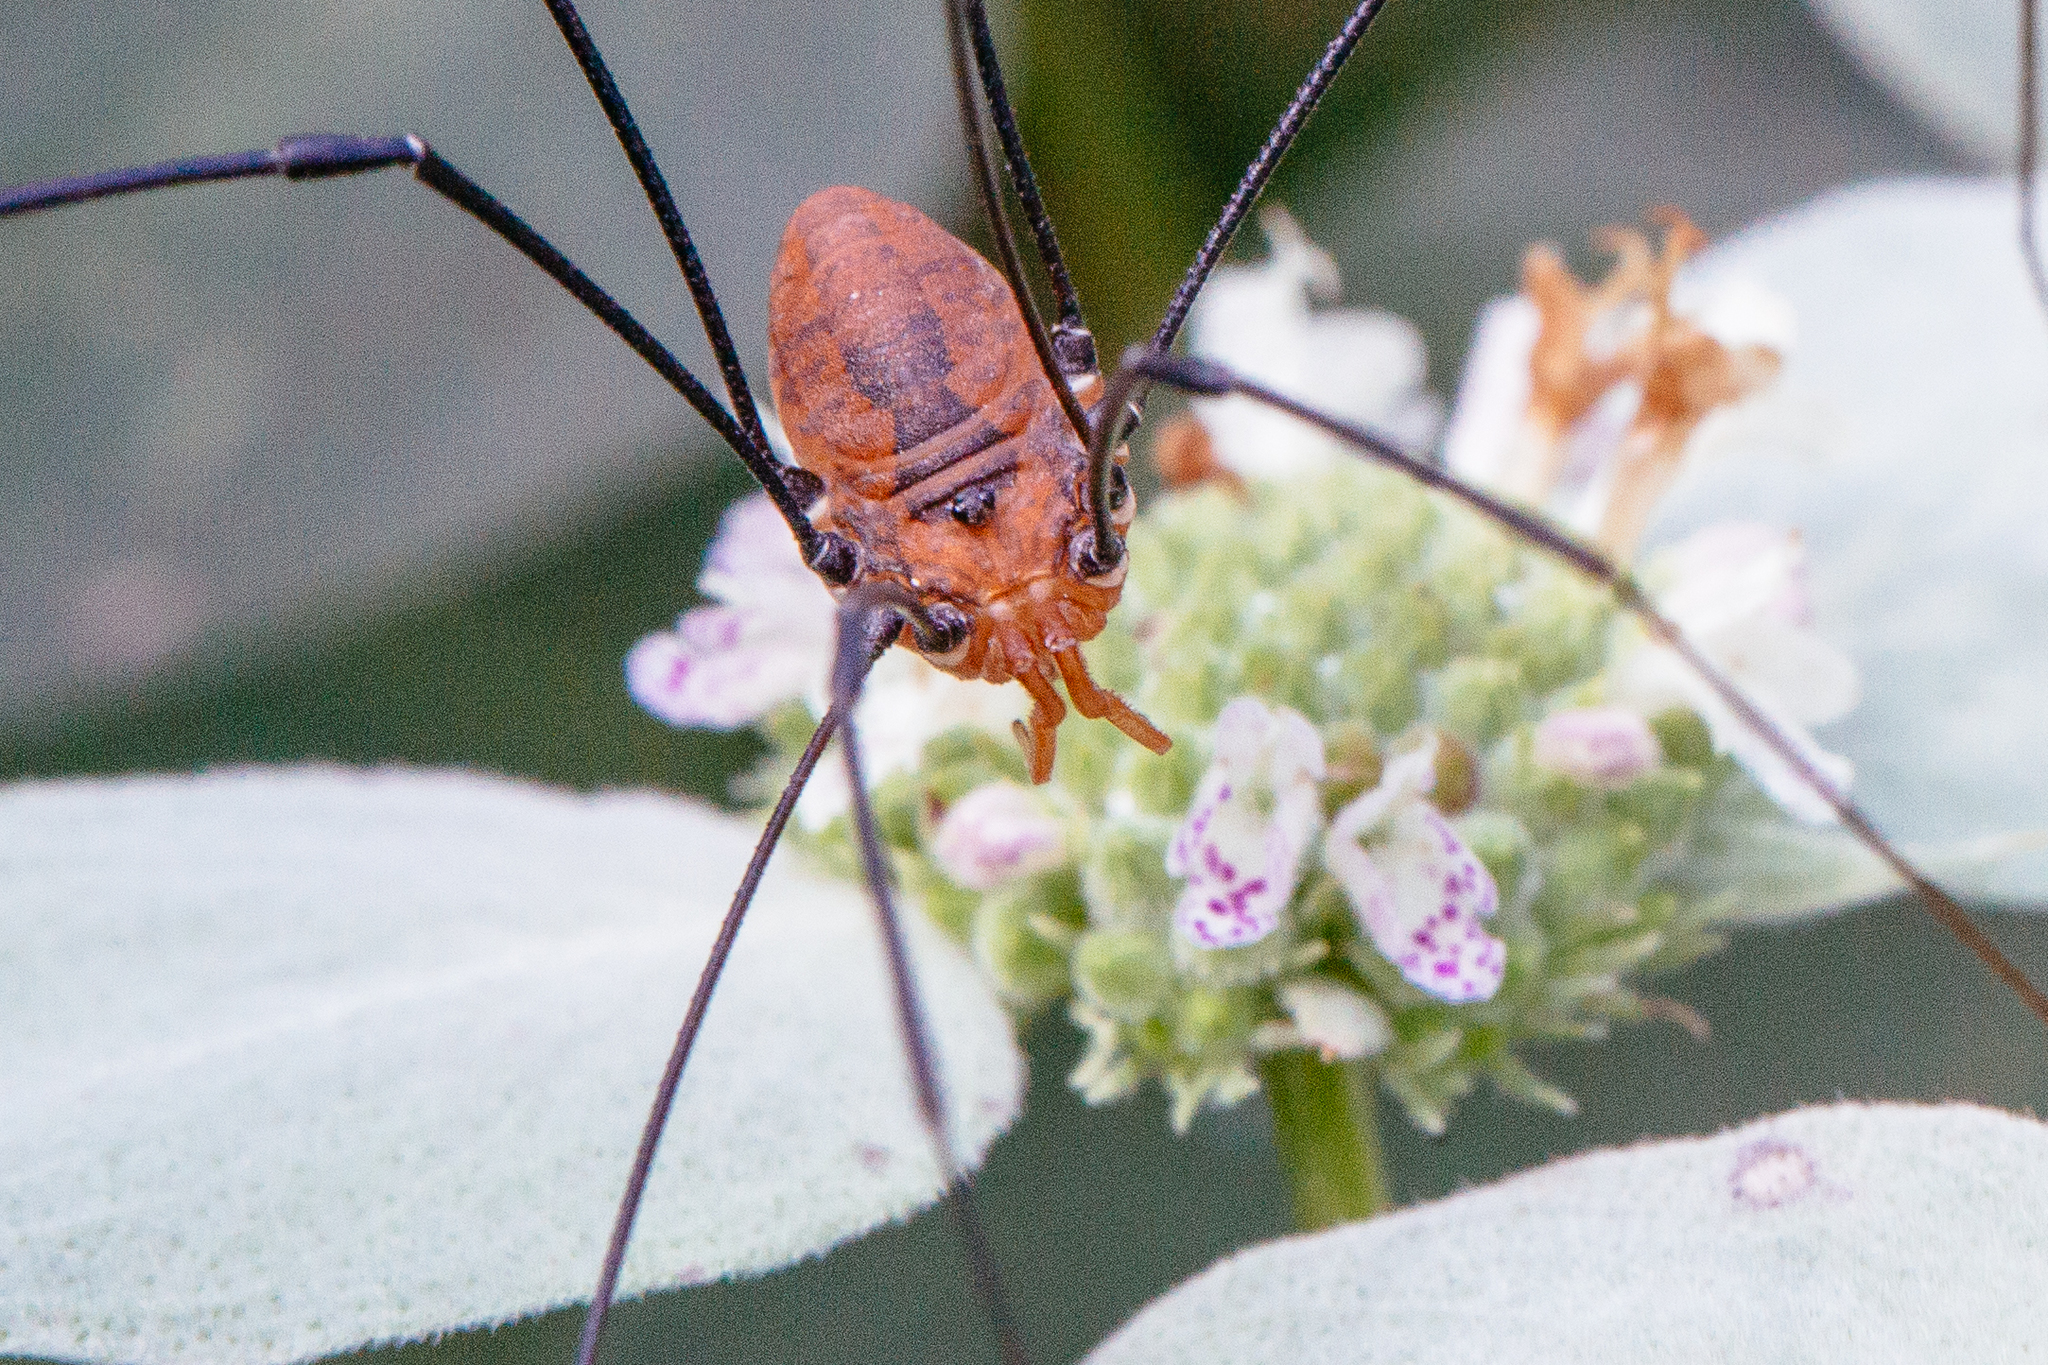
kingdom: Animalia
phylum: Arthropoda
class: Arachnida
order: Opiliones
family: Sclerosomatidae
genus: Leiobunum
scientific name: Leiobunum vittatum
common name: Eastern harvestman
